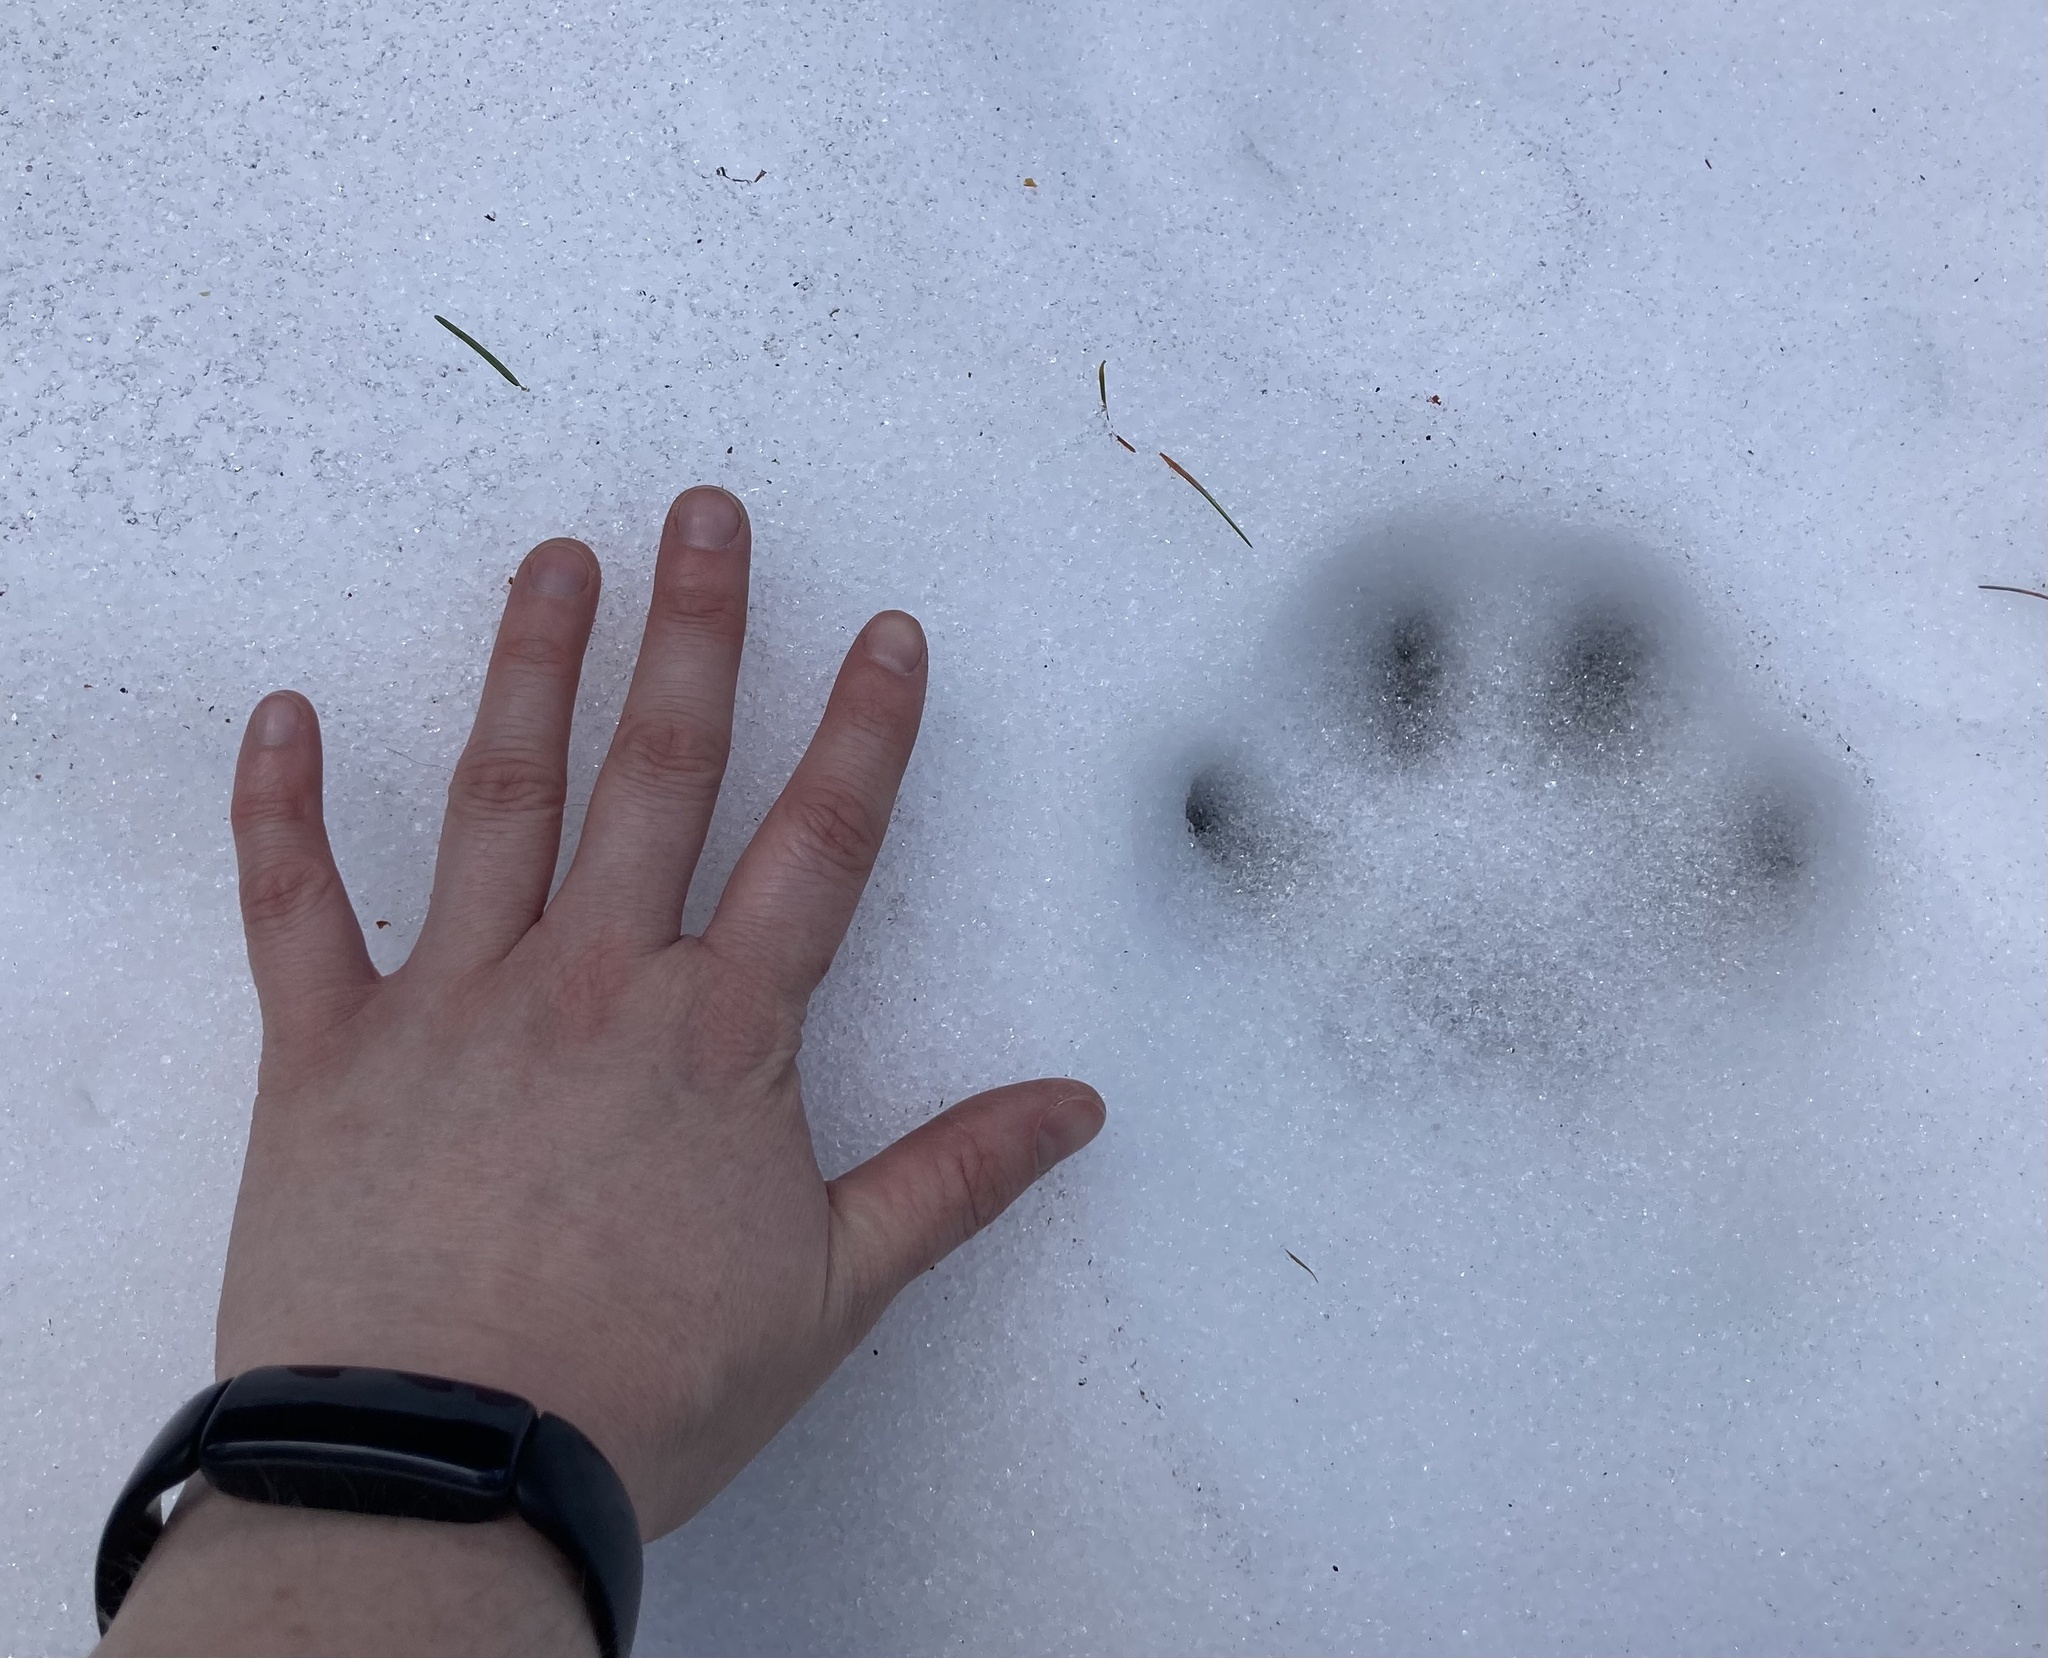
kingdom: Animalia
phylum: Chordata
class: Mammalia
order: Carnivora
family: Felidae
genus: Puma
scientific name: Puma concolor
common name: Puma
